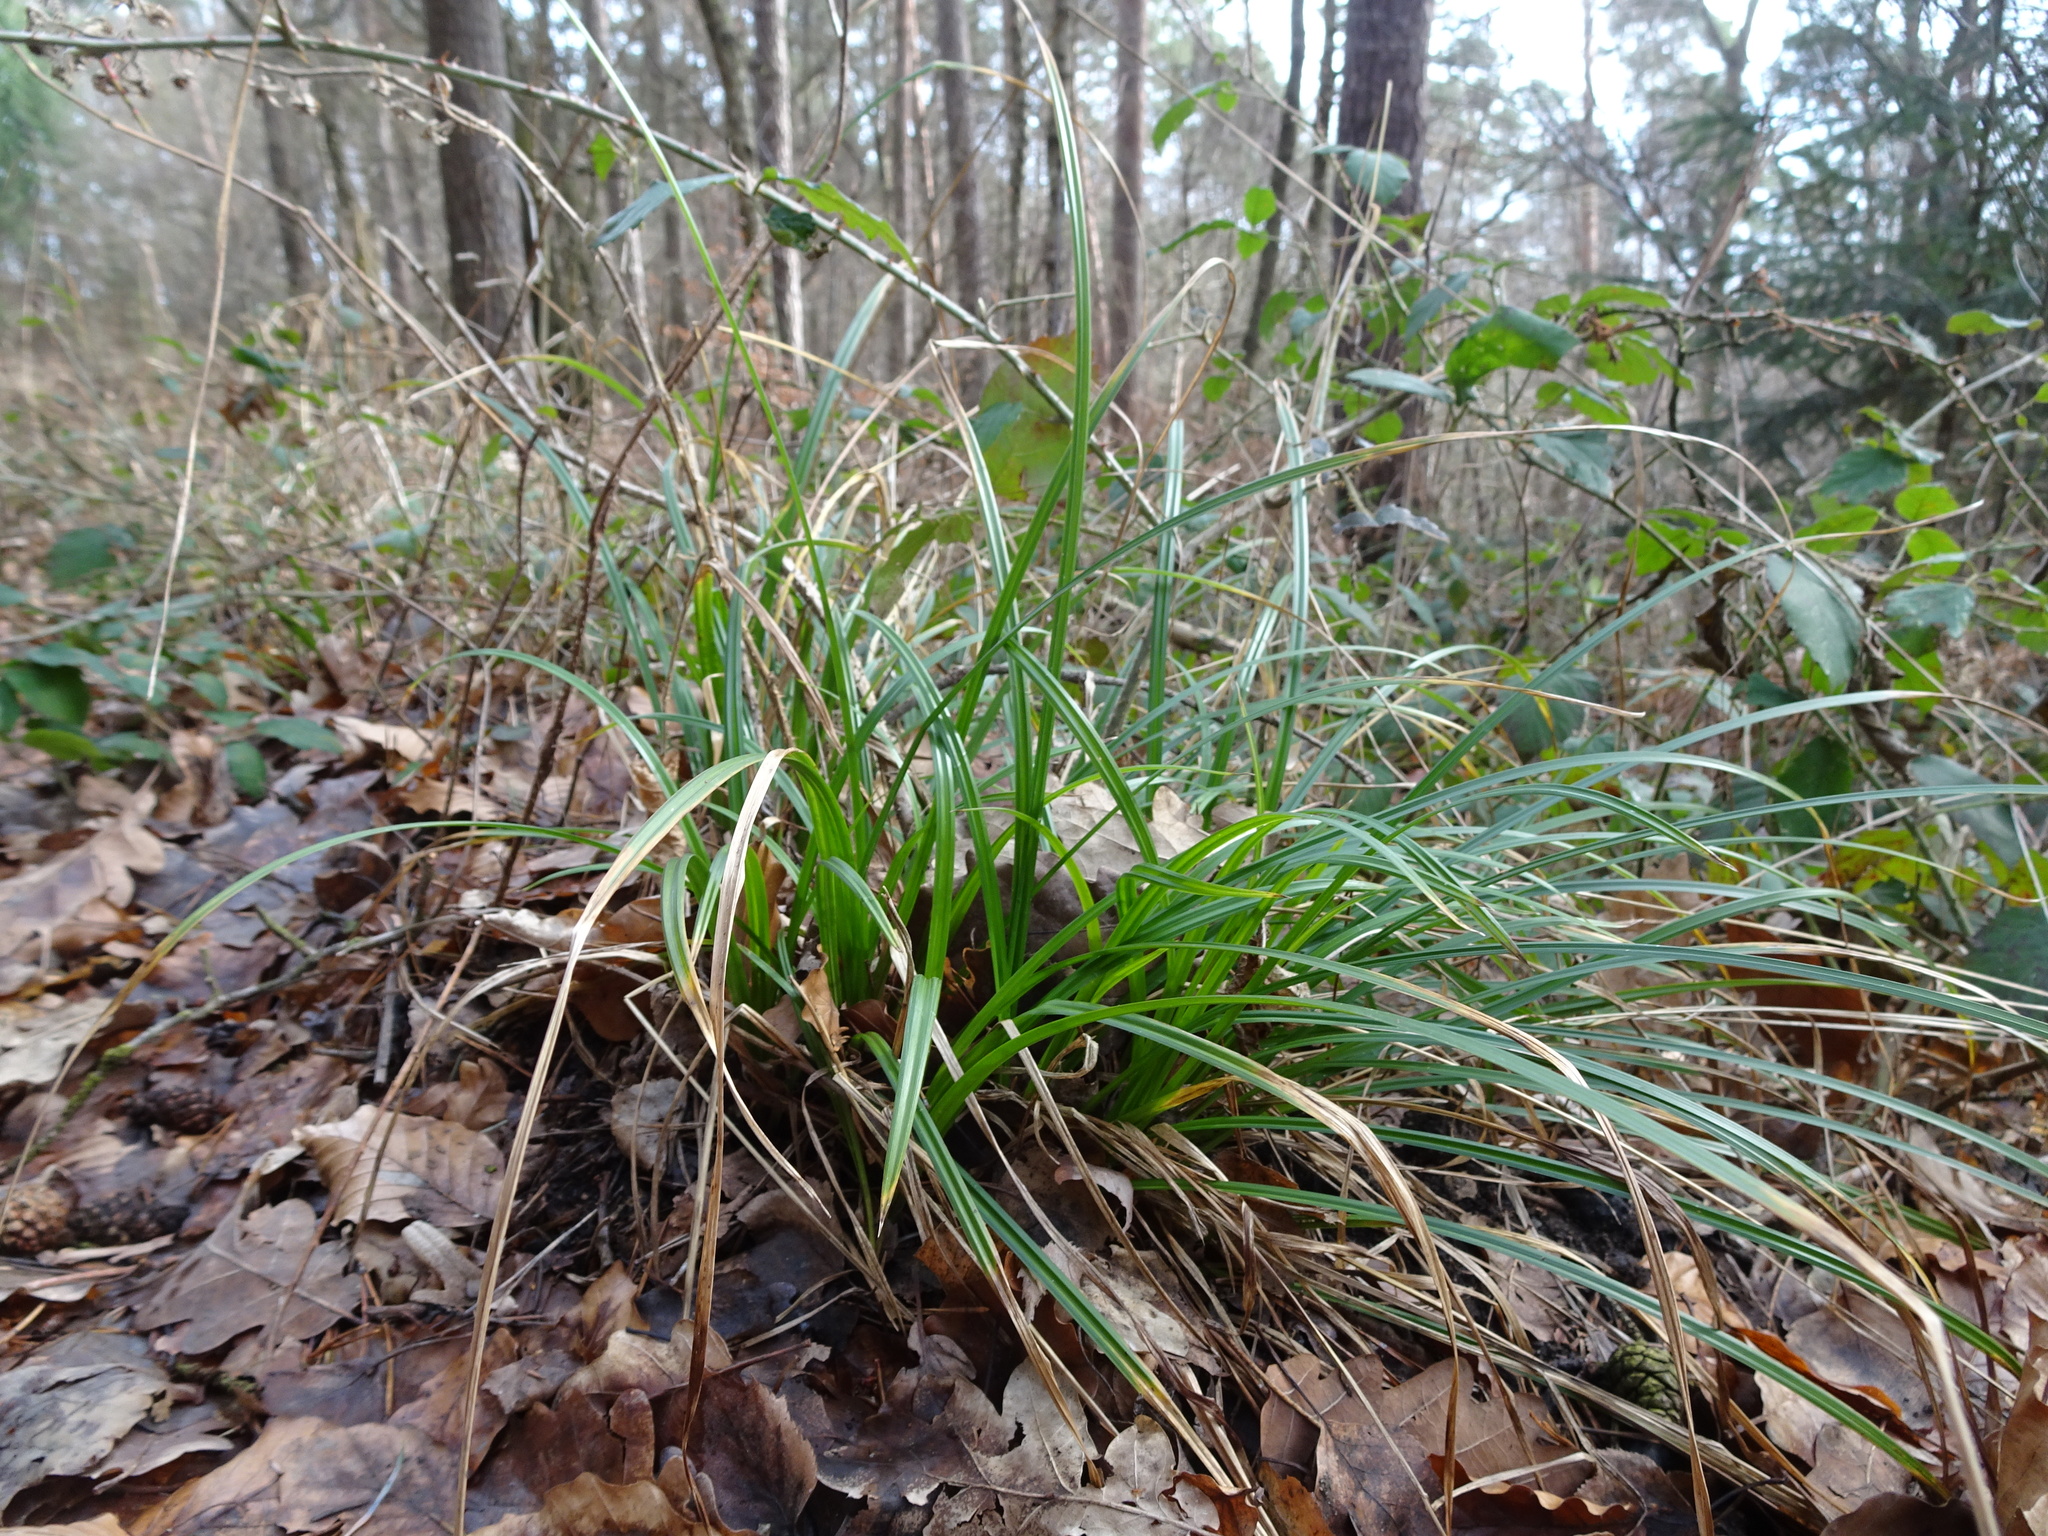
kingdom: Plantae
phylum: Tracheophyta
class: Liliopsida
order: Poales
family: Cyperaceae
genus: Carex
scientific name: Carex sylvatica
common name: Wood-sedge
